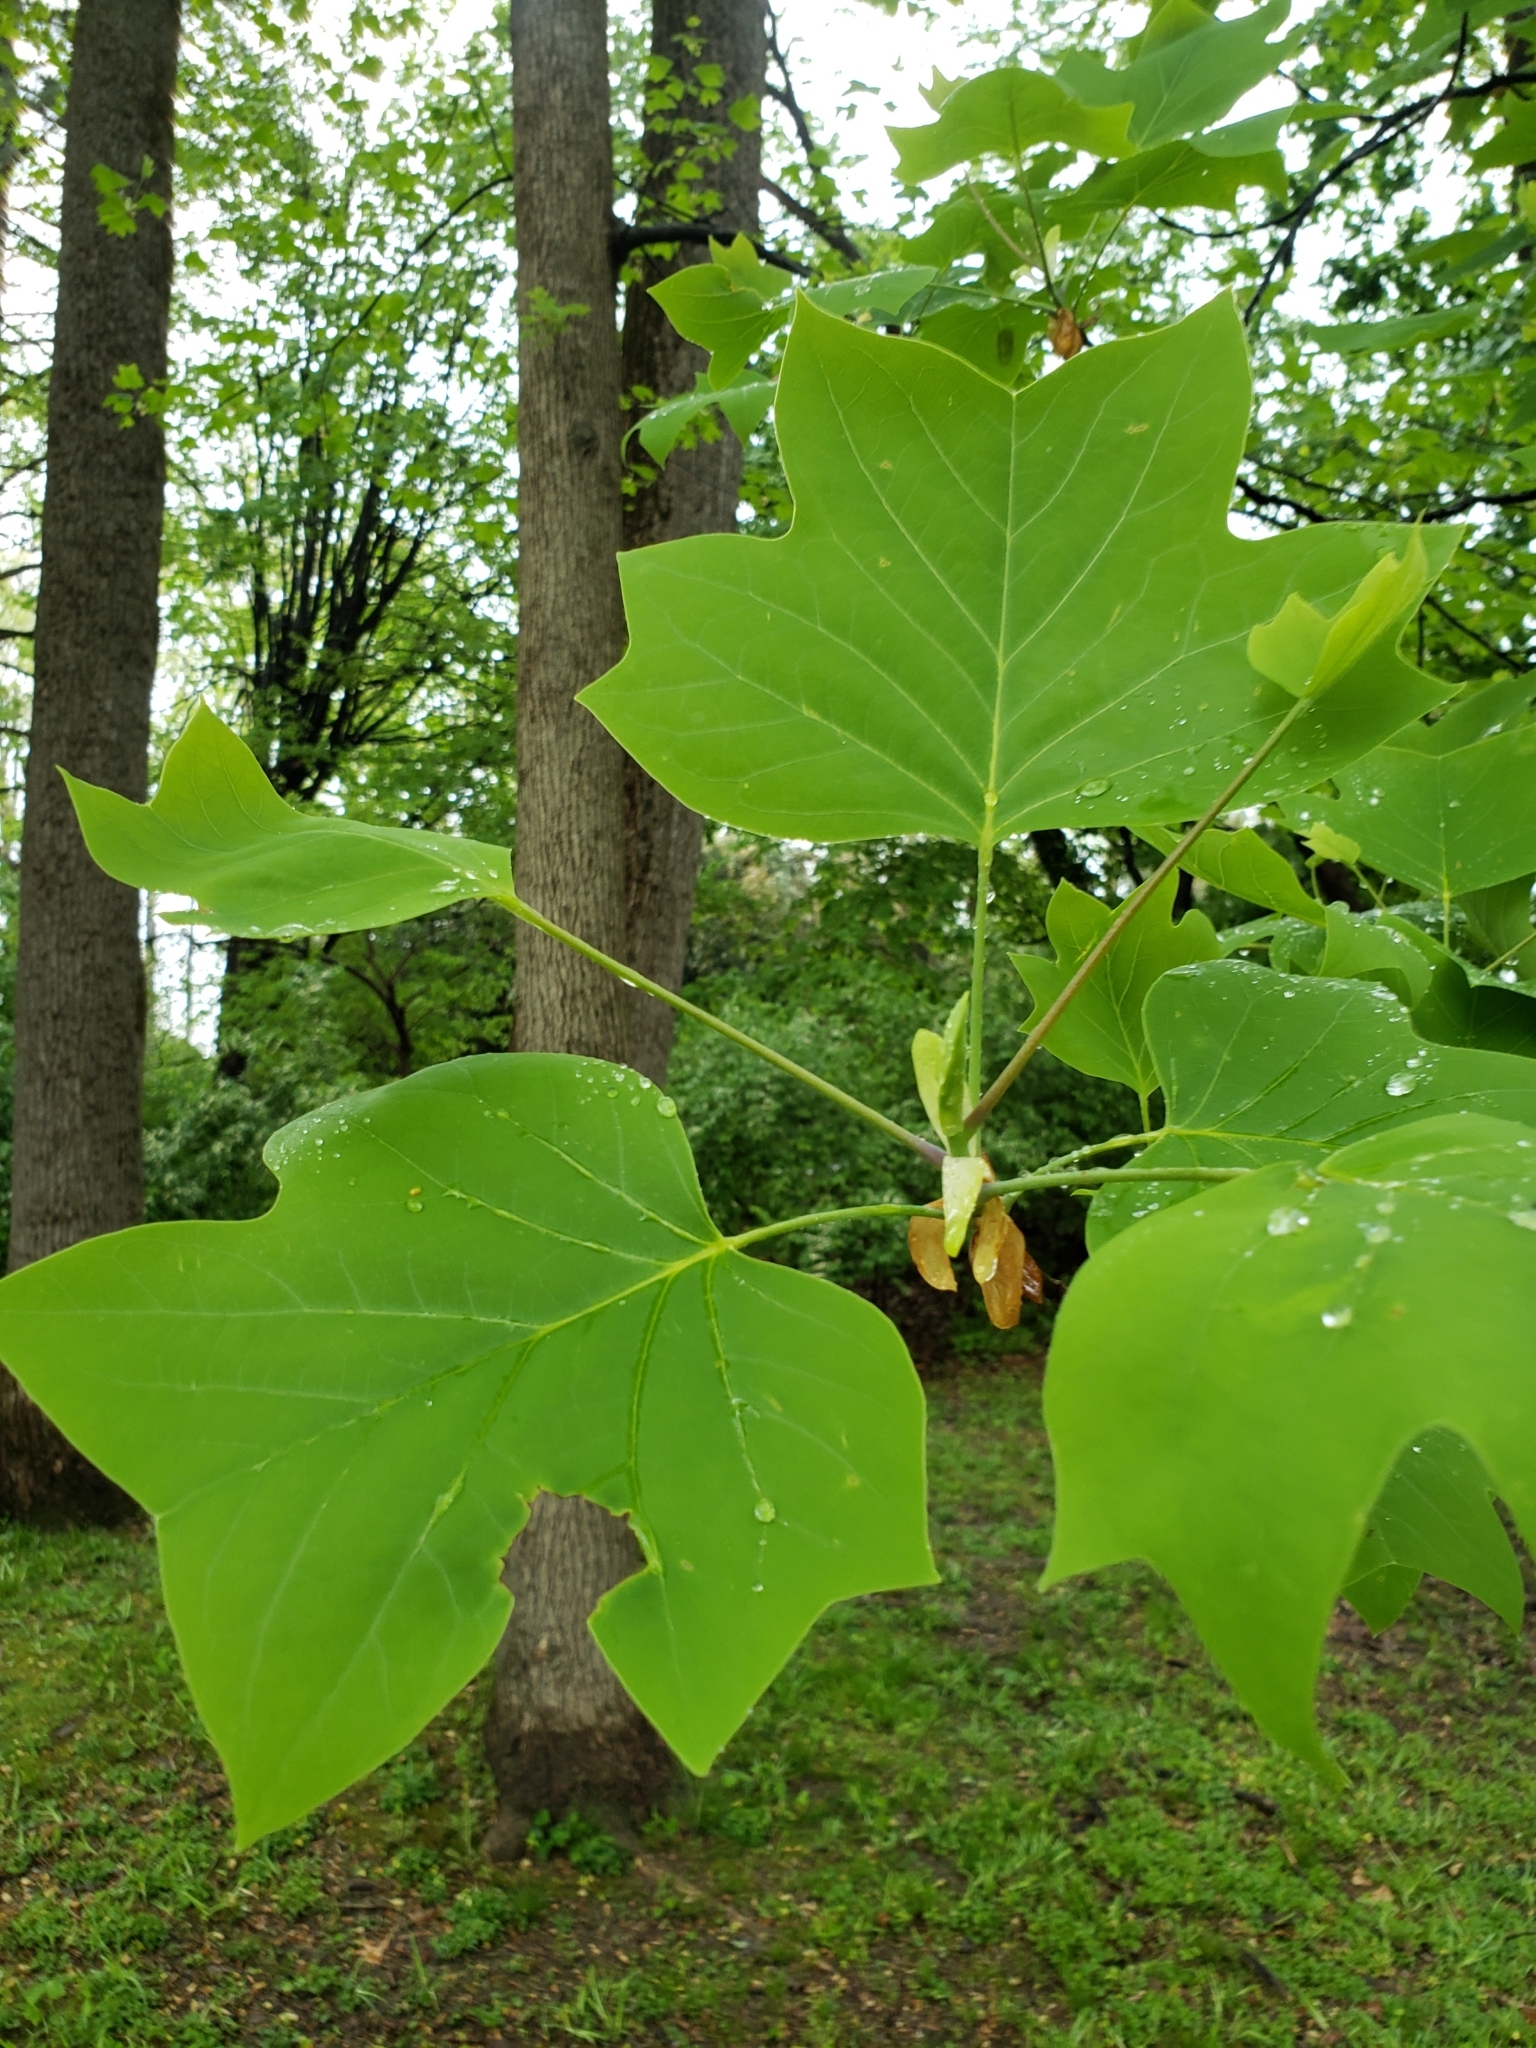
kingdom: Plantae
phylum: Tracheophyta
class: Magnoliopsida
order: Magnoliales
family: Magnoliaceae
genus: Liriodendron
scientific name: Liriodendron tulipifera
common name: Tulip tree
